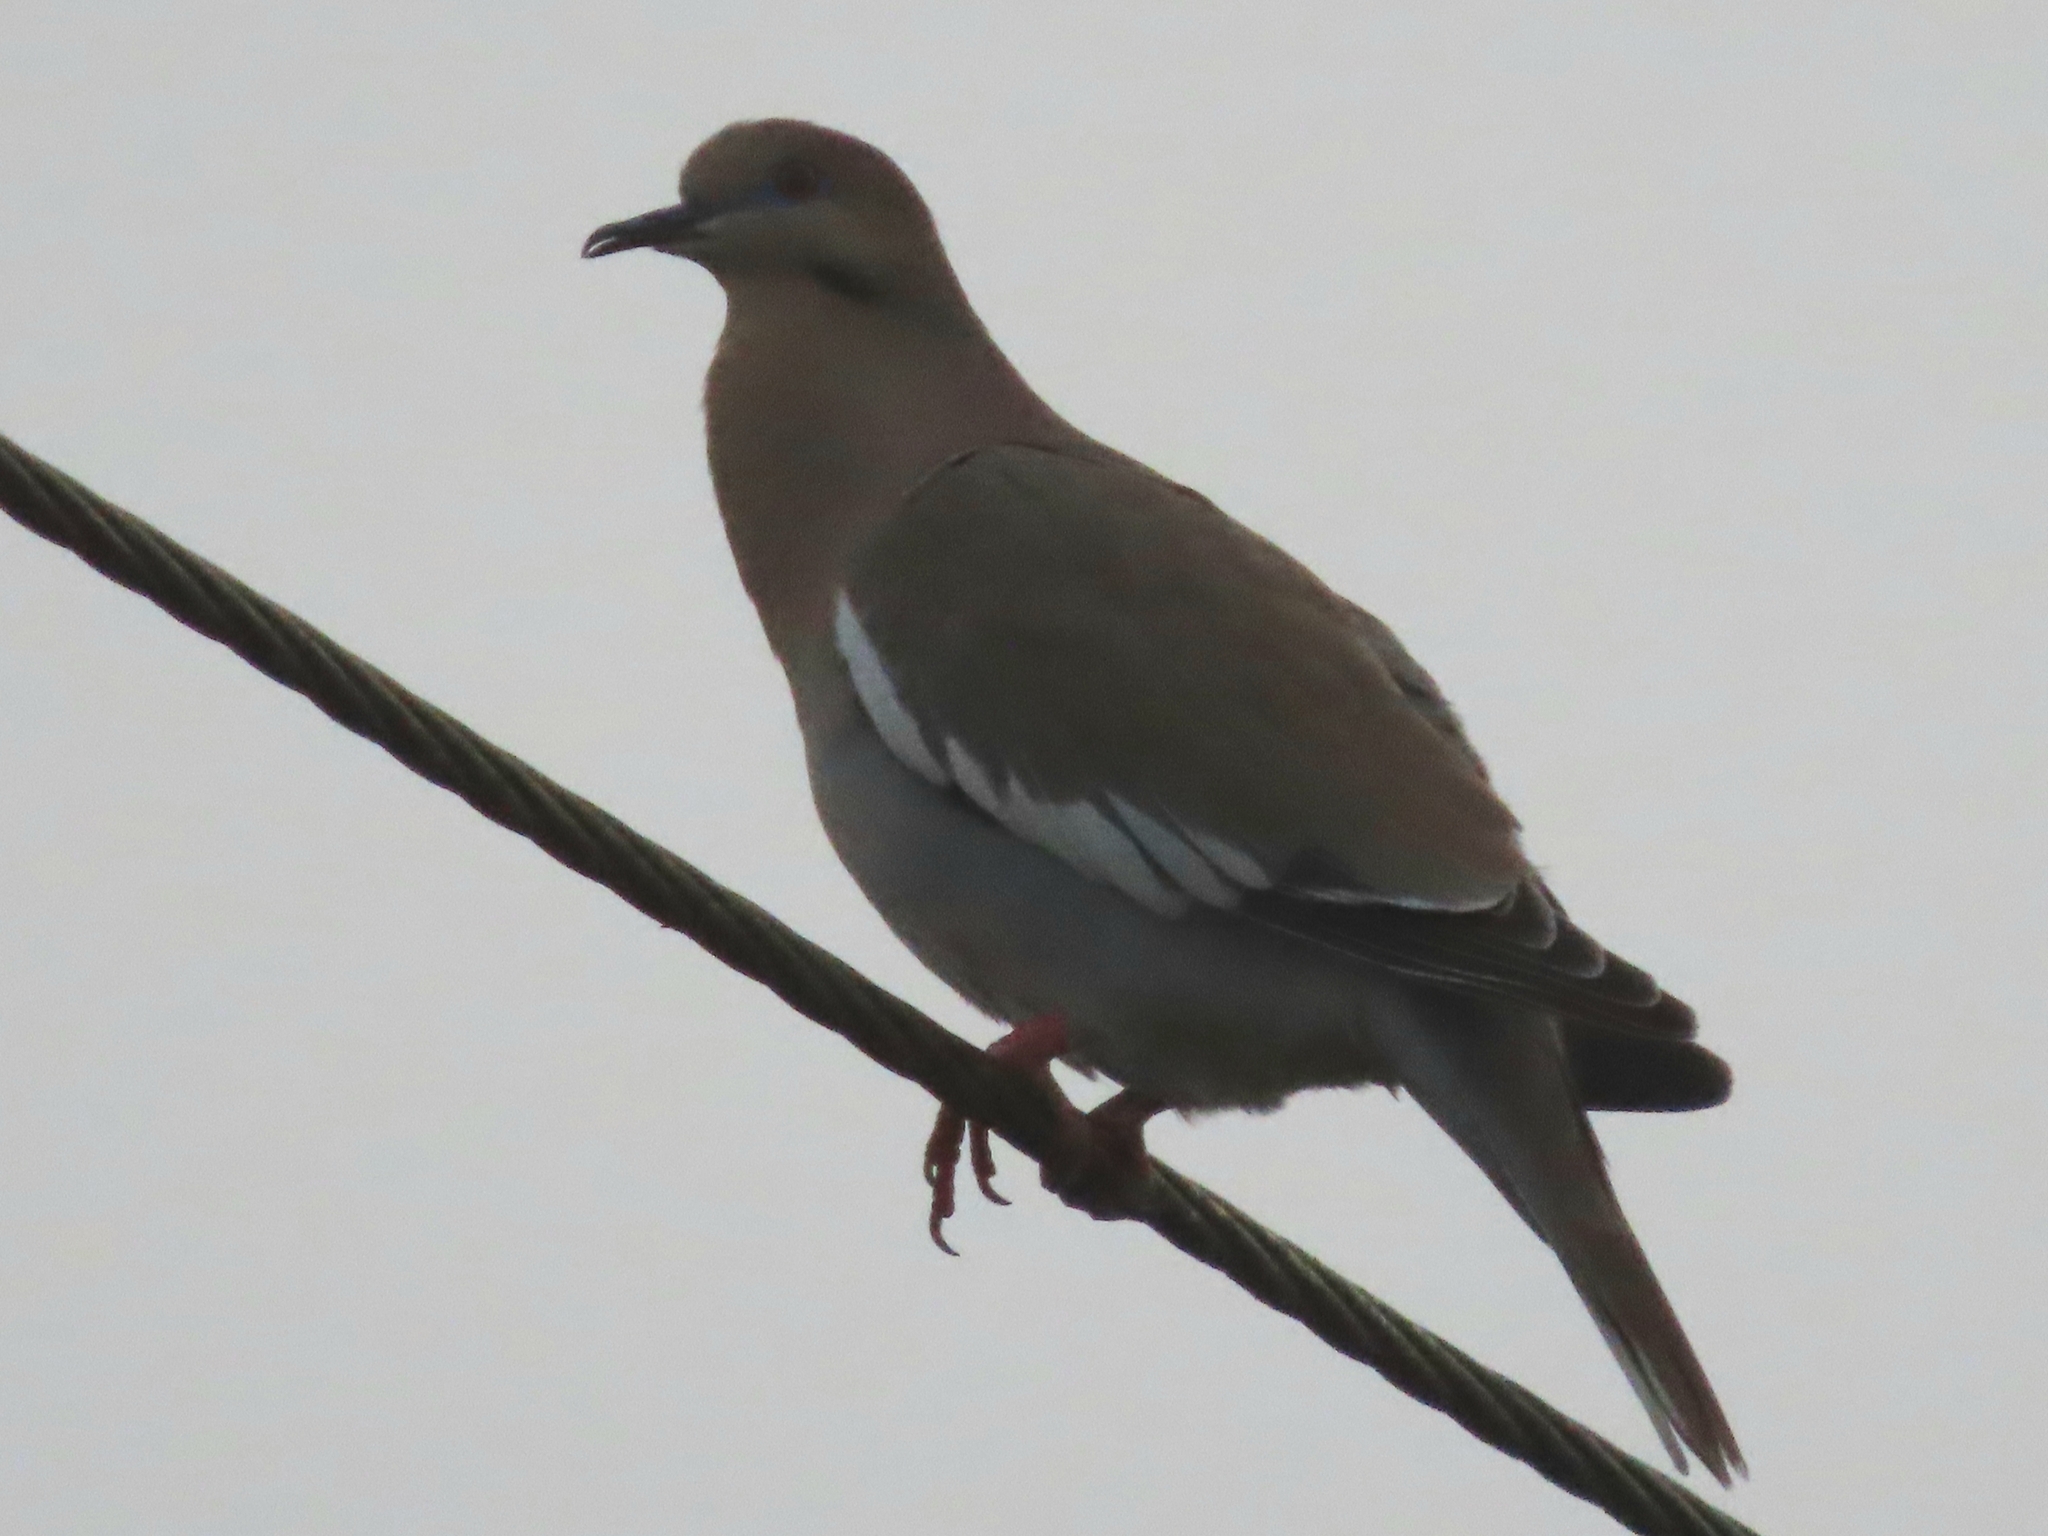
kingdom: Animalia
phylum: Chordata
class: Aves
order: Columbiformes
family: Columbidae
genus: Zenaida
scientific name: Zenaida asiatica
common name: White-winged dove
